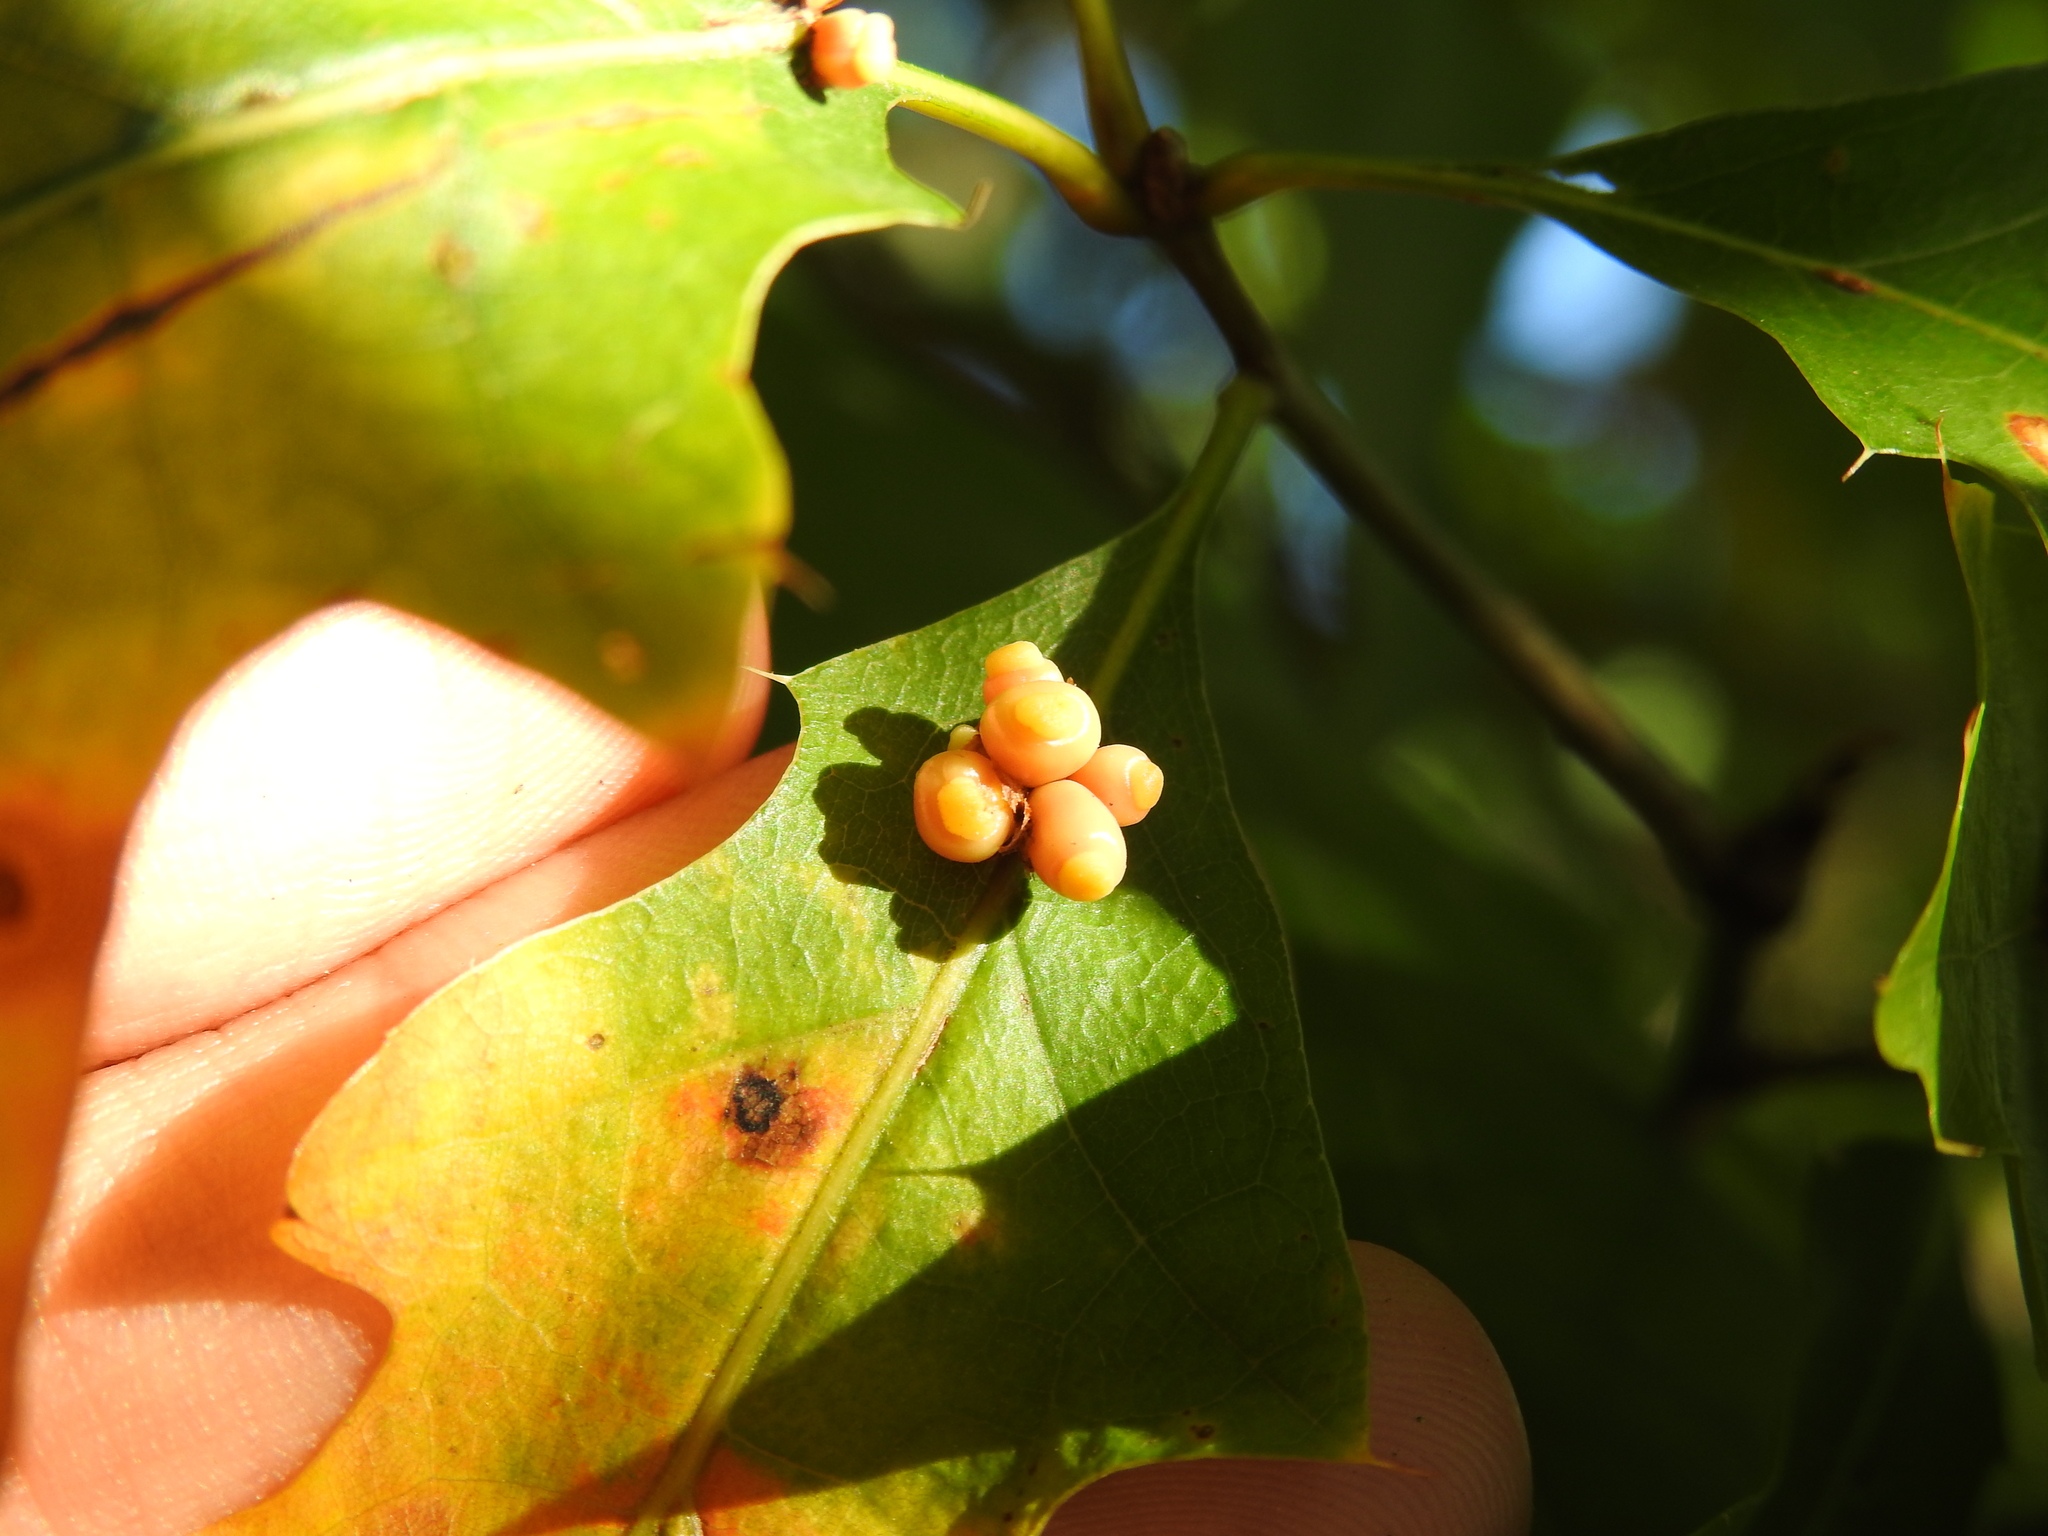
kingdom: Animalia
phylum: Arthropoda
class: Insecta
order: Hymenoptera
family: Cynipidae
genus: Kokkocynips
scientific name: Kokkocynips decidua
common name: Oak wheat gall
